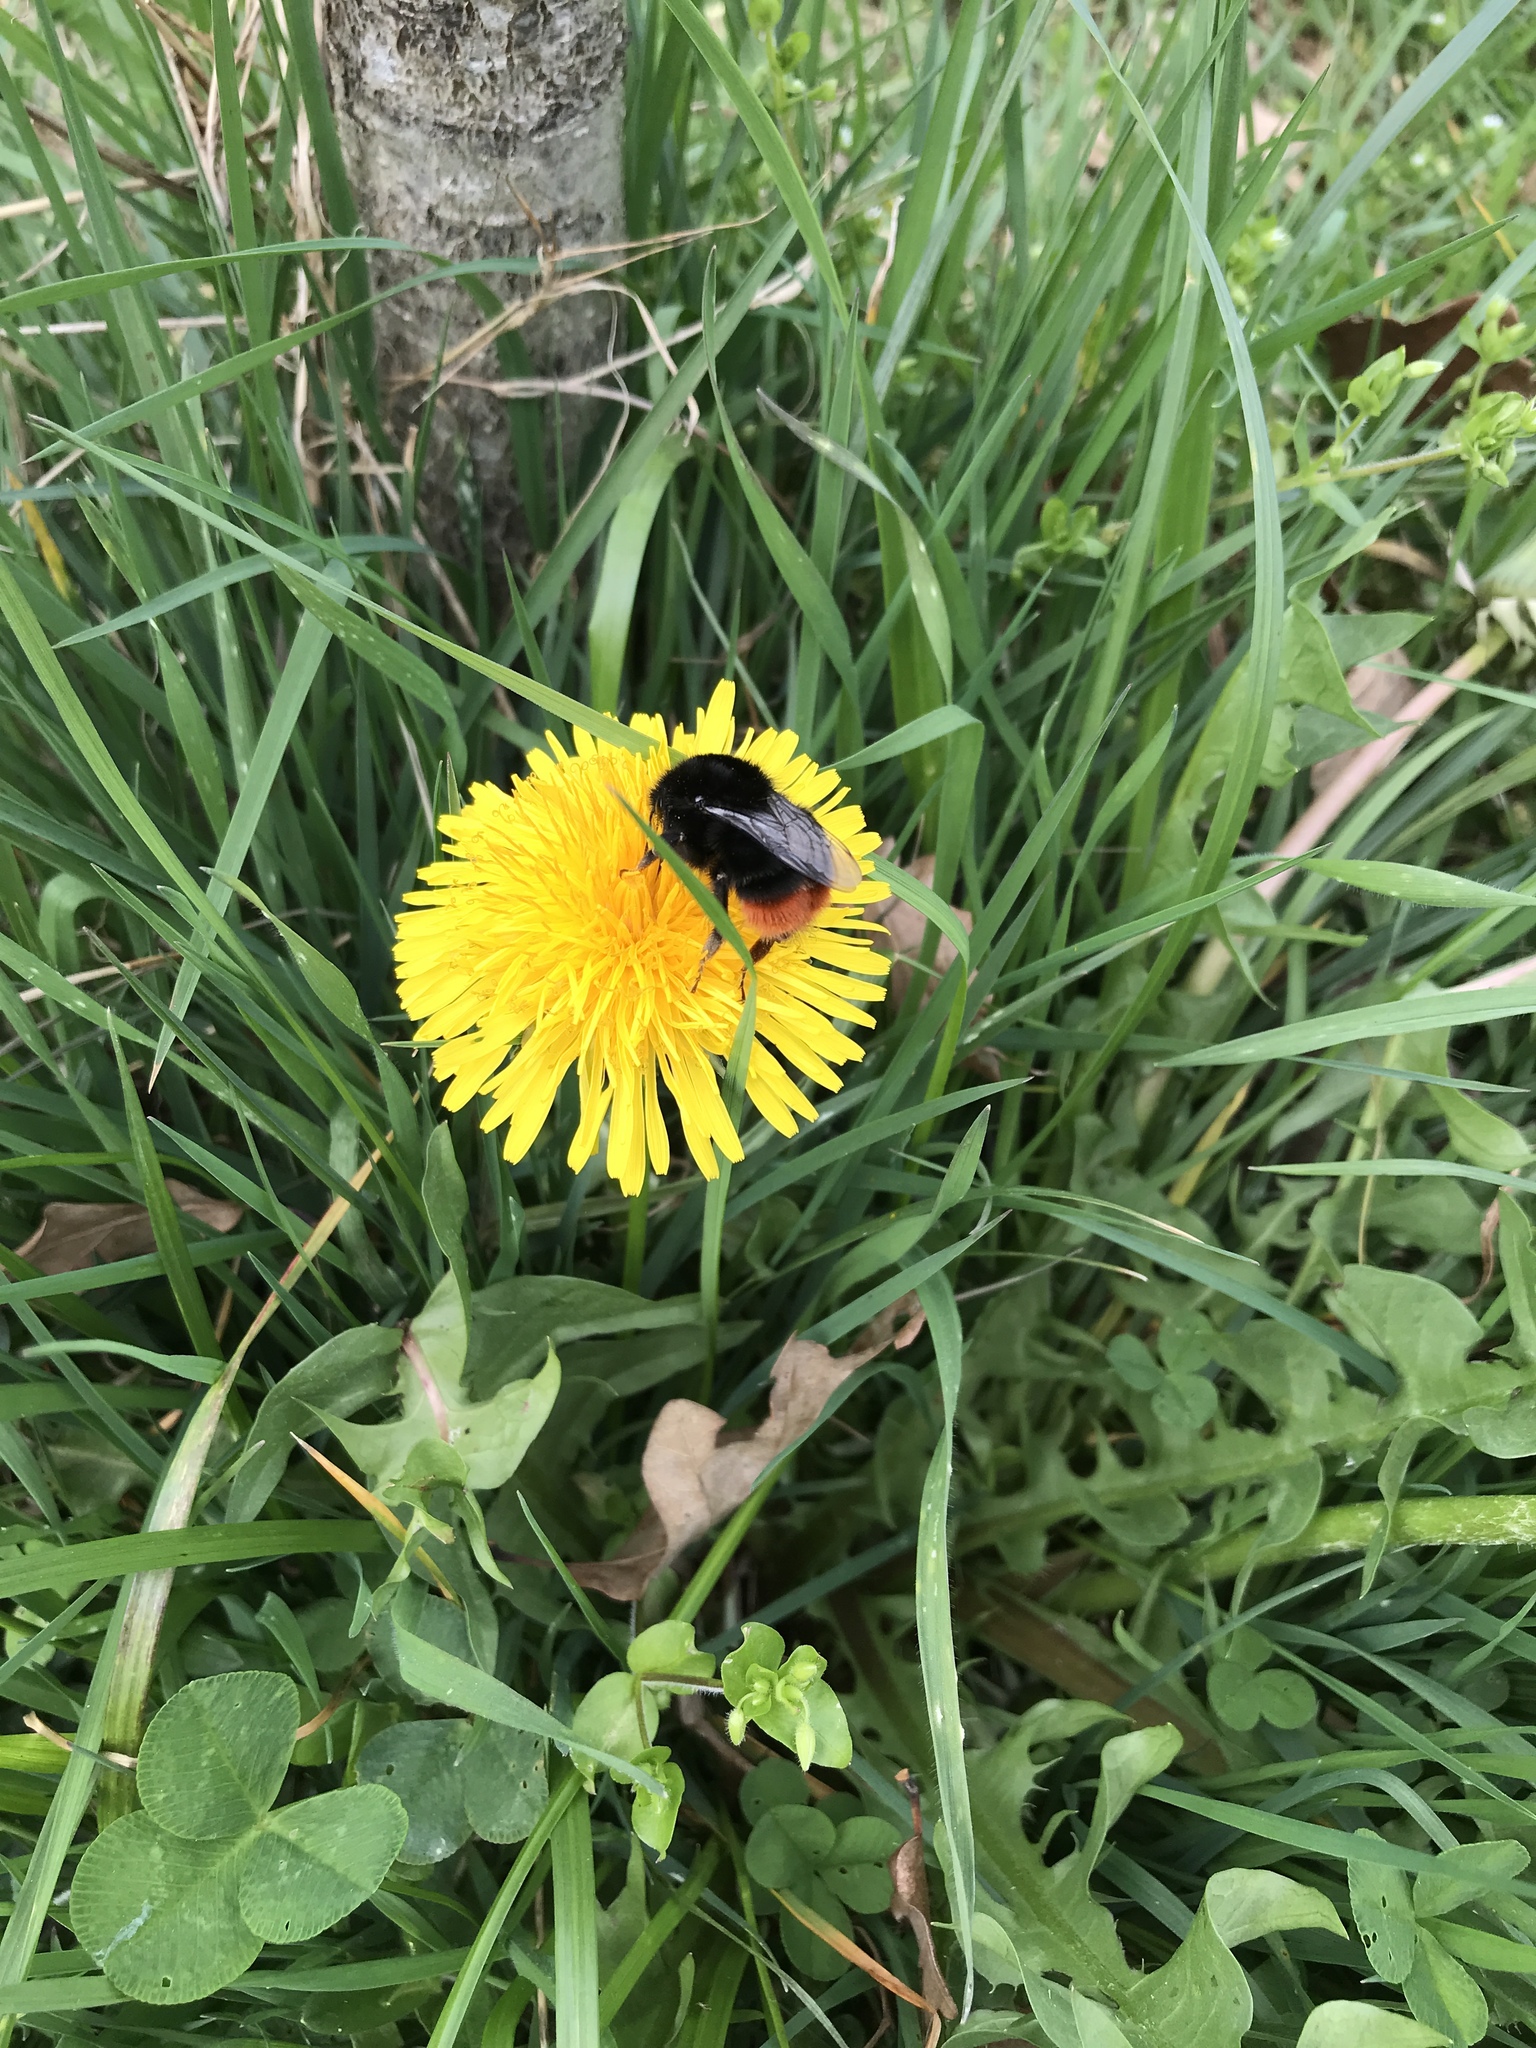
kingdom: Animalia
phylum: Arthropoda
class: Insecta
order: Hymenoptera
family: Apidae
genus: Bombus
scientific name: Bombus lapidarius
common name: Large red-tailed humble-bee
